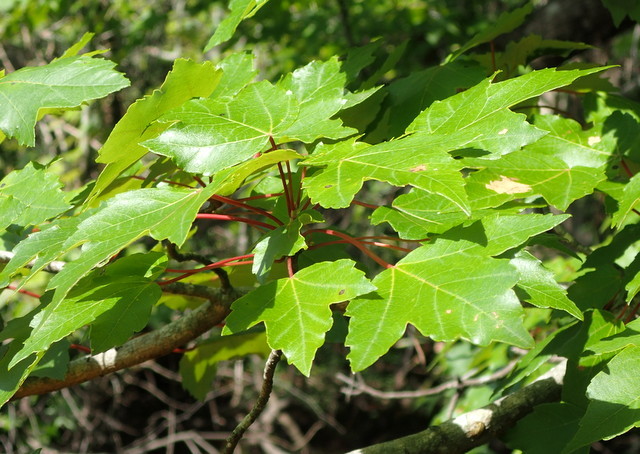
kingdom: Plantae
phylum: Tracheophyta
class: Magnoliopsida
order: Sapindales
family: Sapindaceae
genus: Acer
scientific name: Acer rubrum
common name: Red maple
